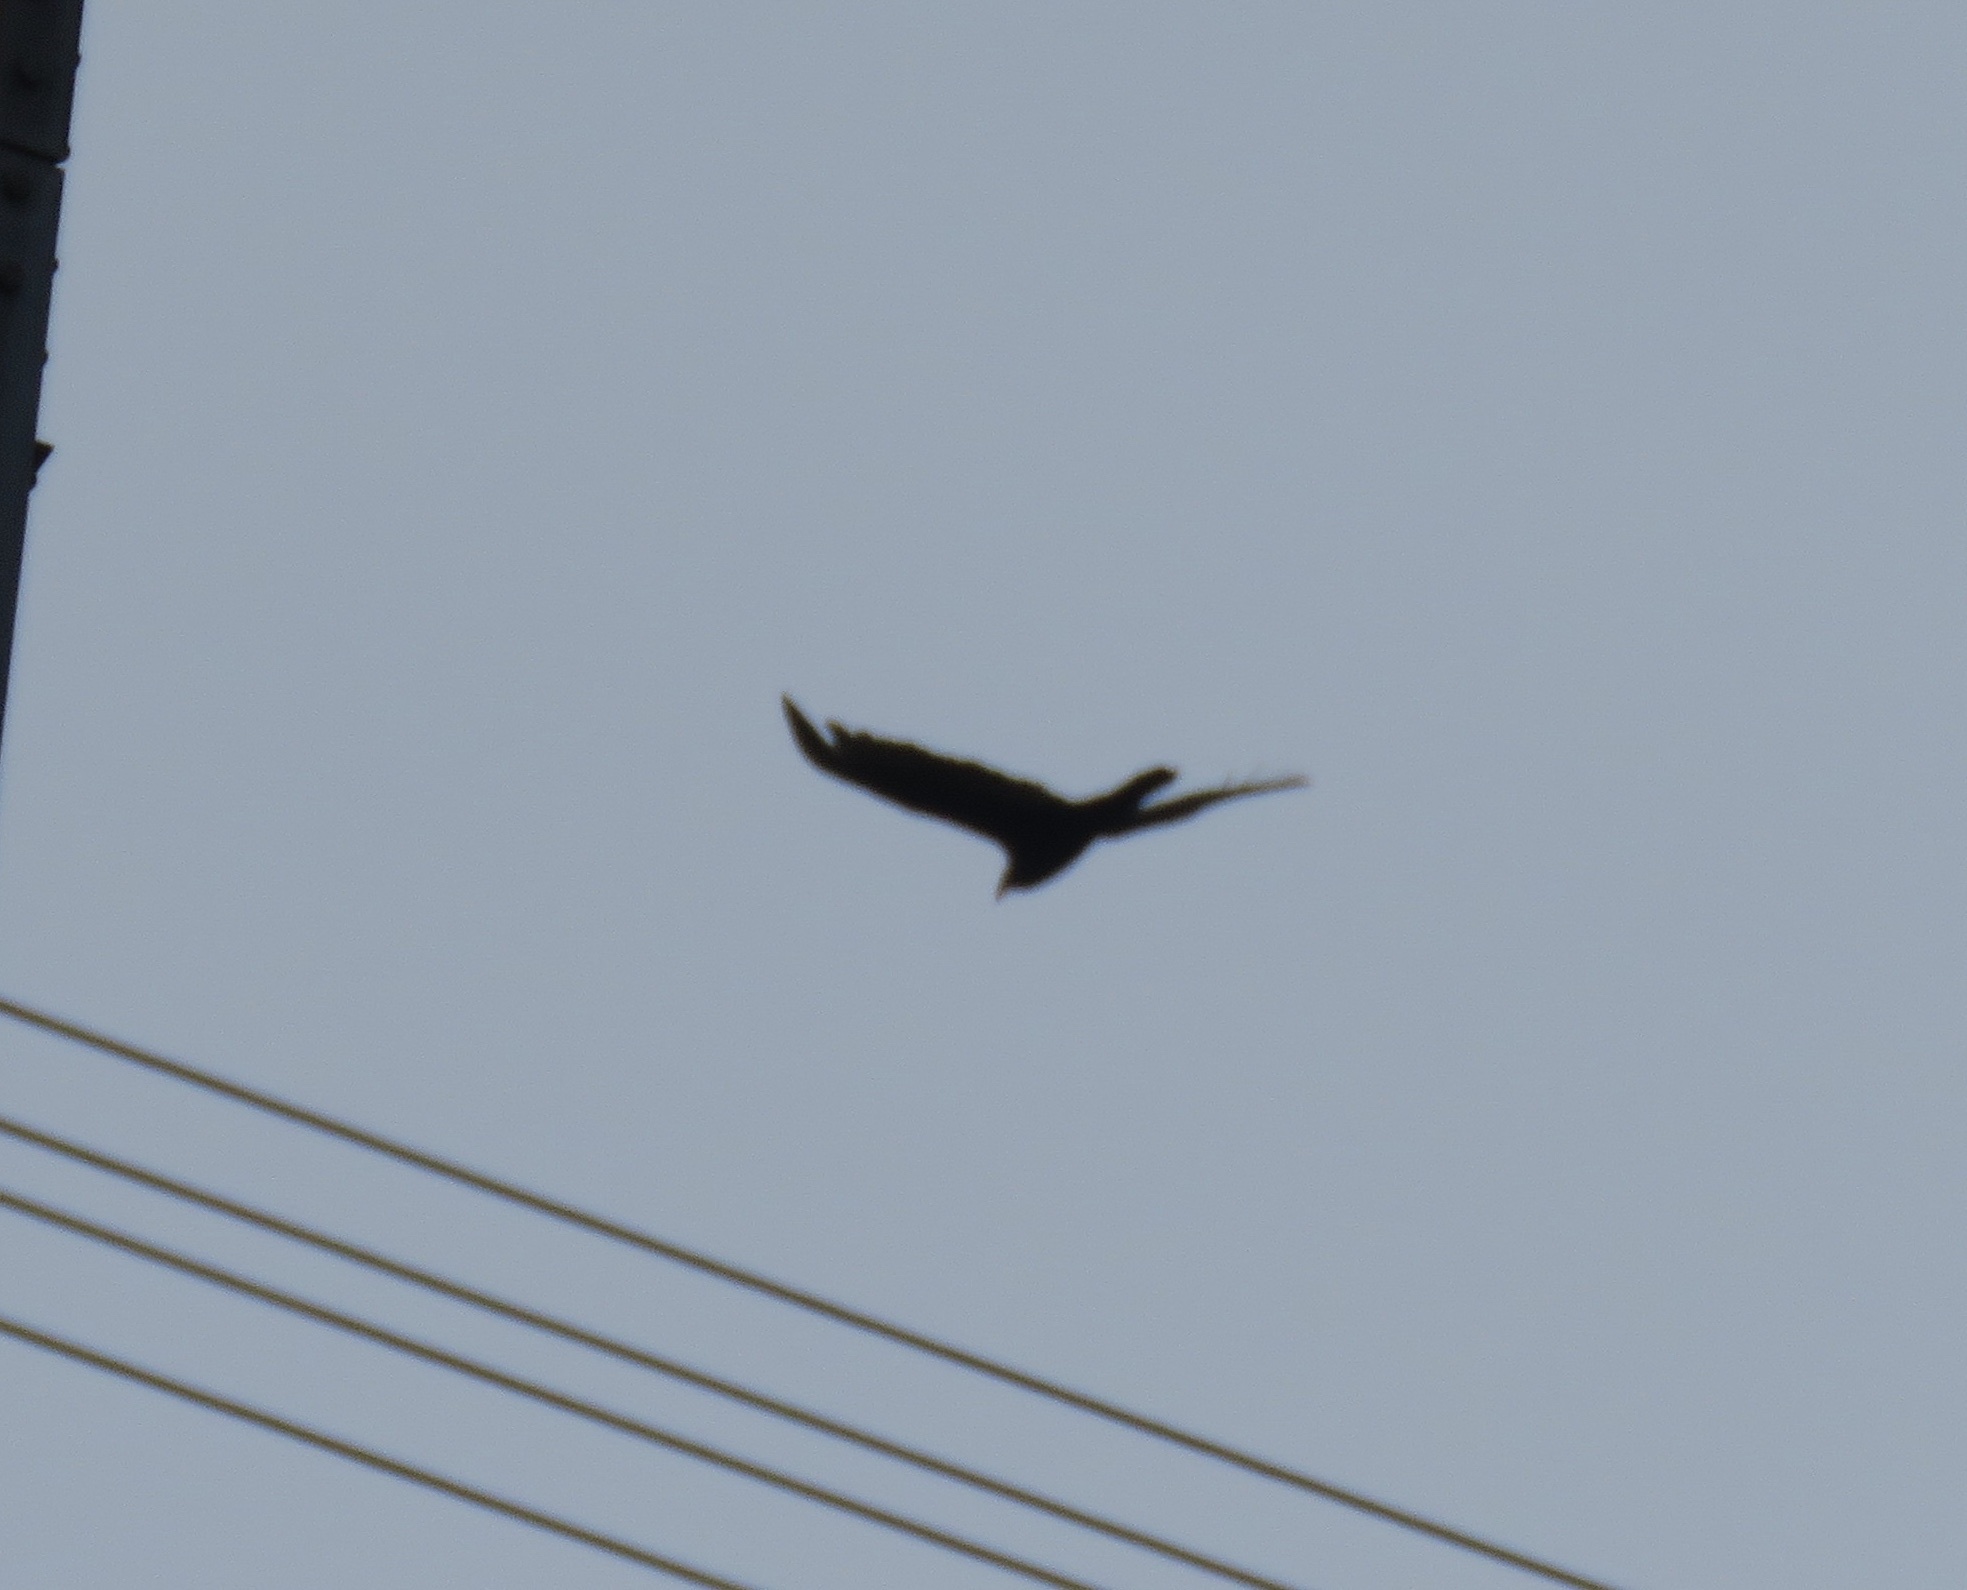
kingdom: Animalia
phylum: Chordata
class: Aves
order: Accipitriformes
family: Cathartidae
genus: Cathartes
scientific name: Cathartes aura
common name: Turkey vulture
